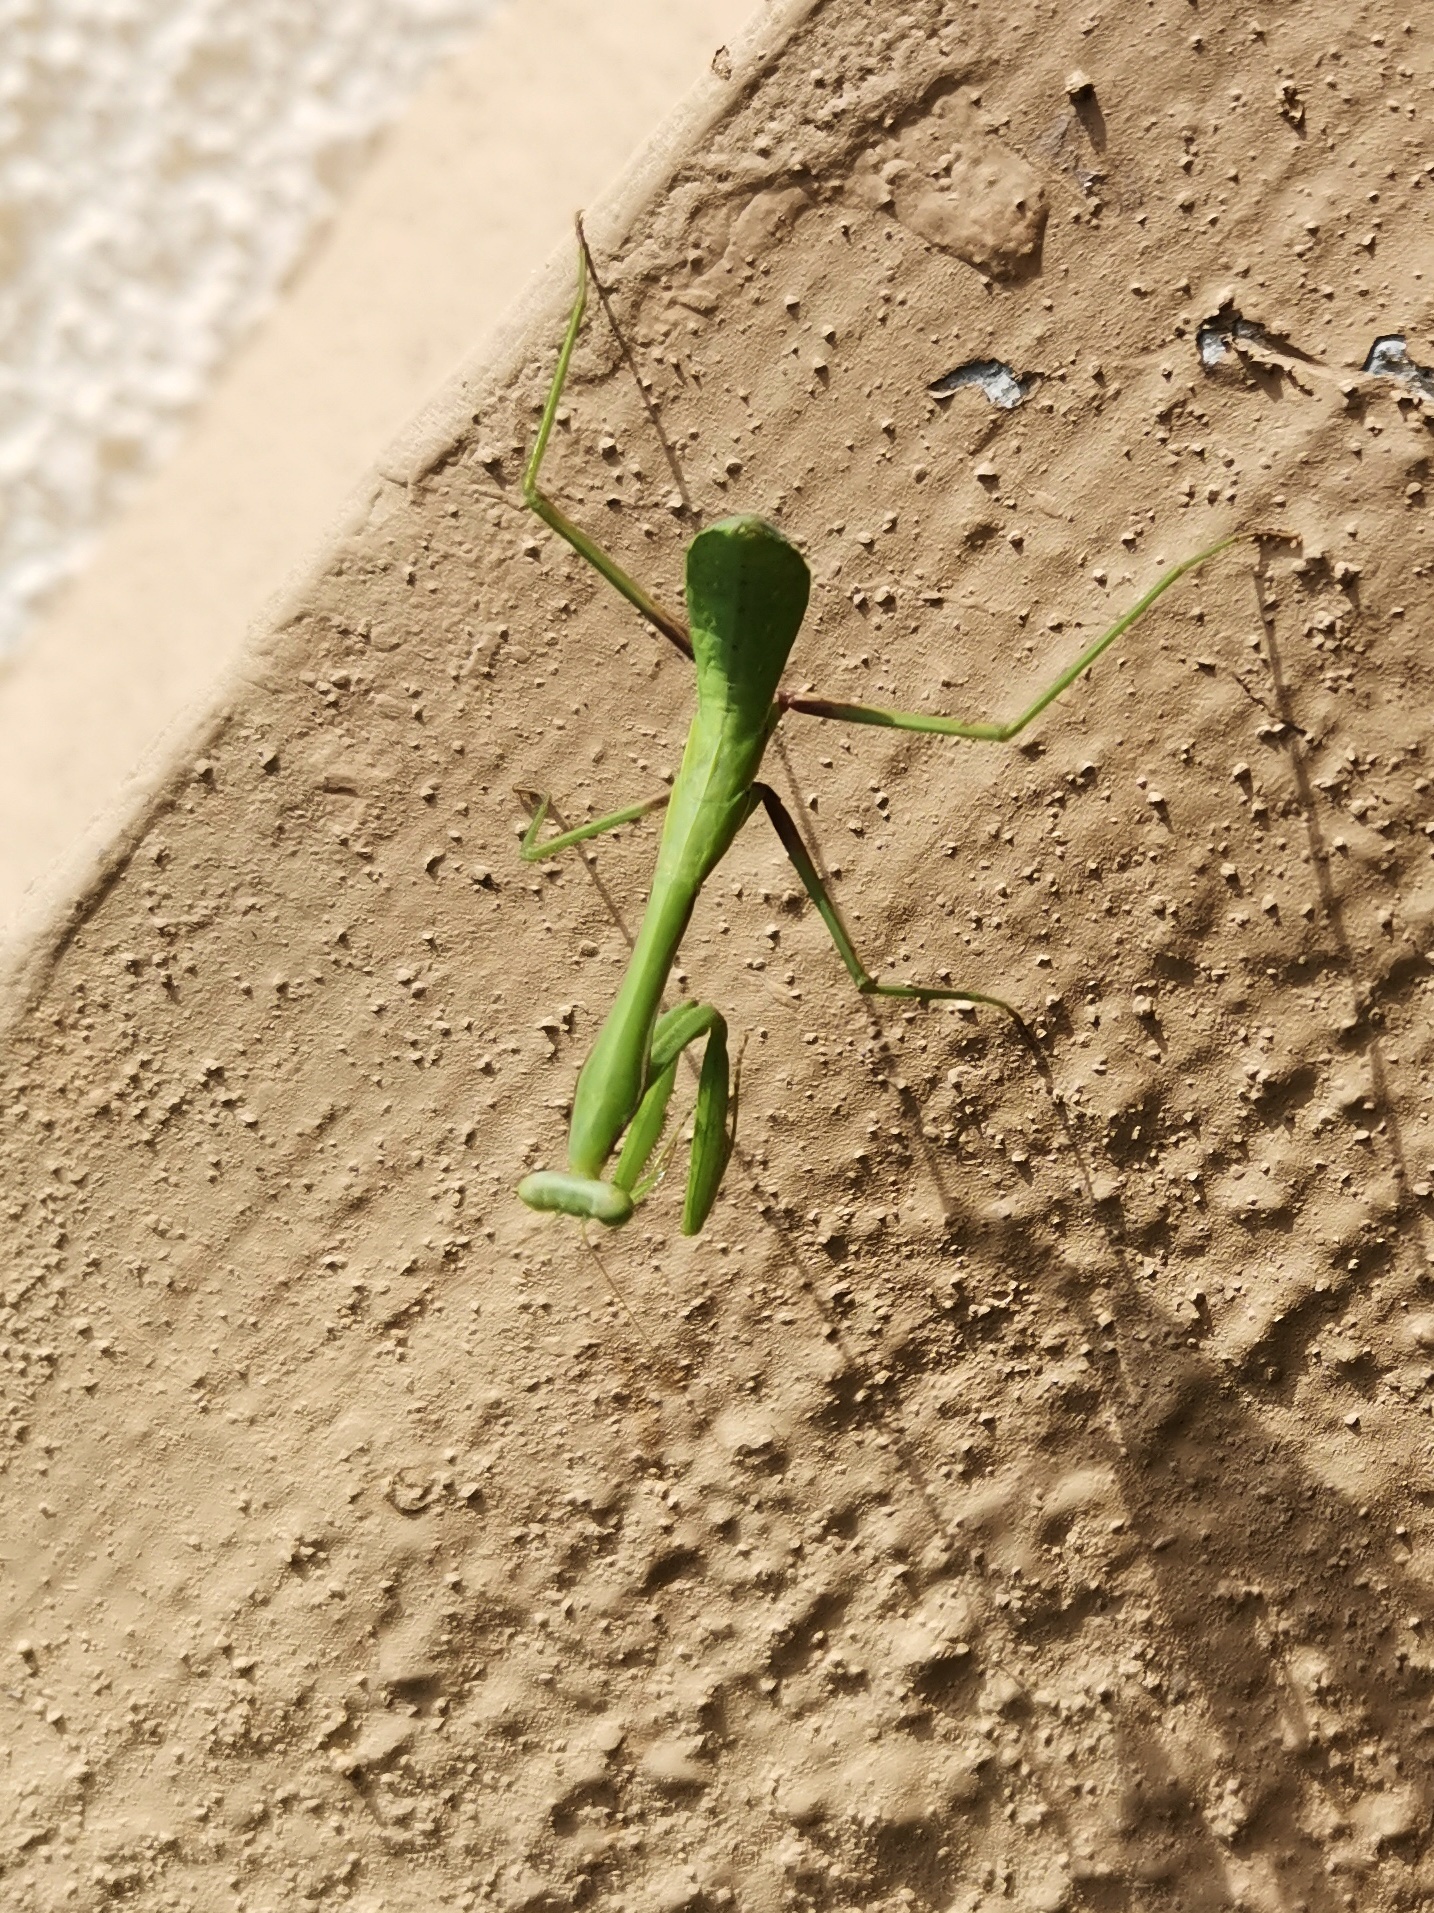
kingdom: Animalia
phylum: Arthropoda
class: Insecta
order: Mantodea
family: Mantidae
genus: Hierodula
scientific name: Hierodula membranacea
